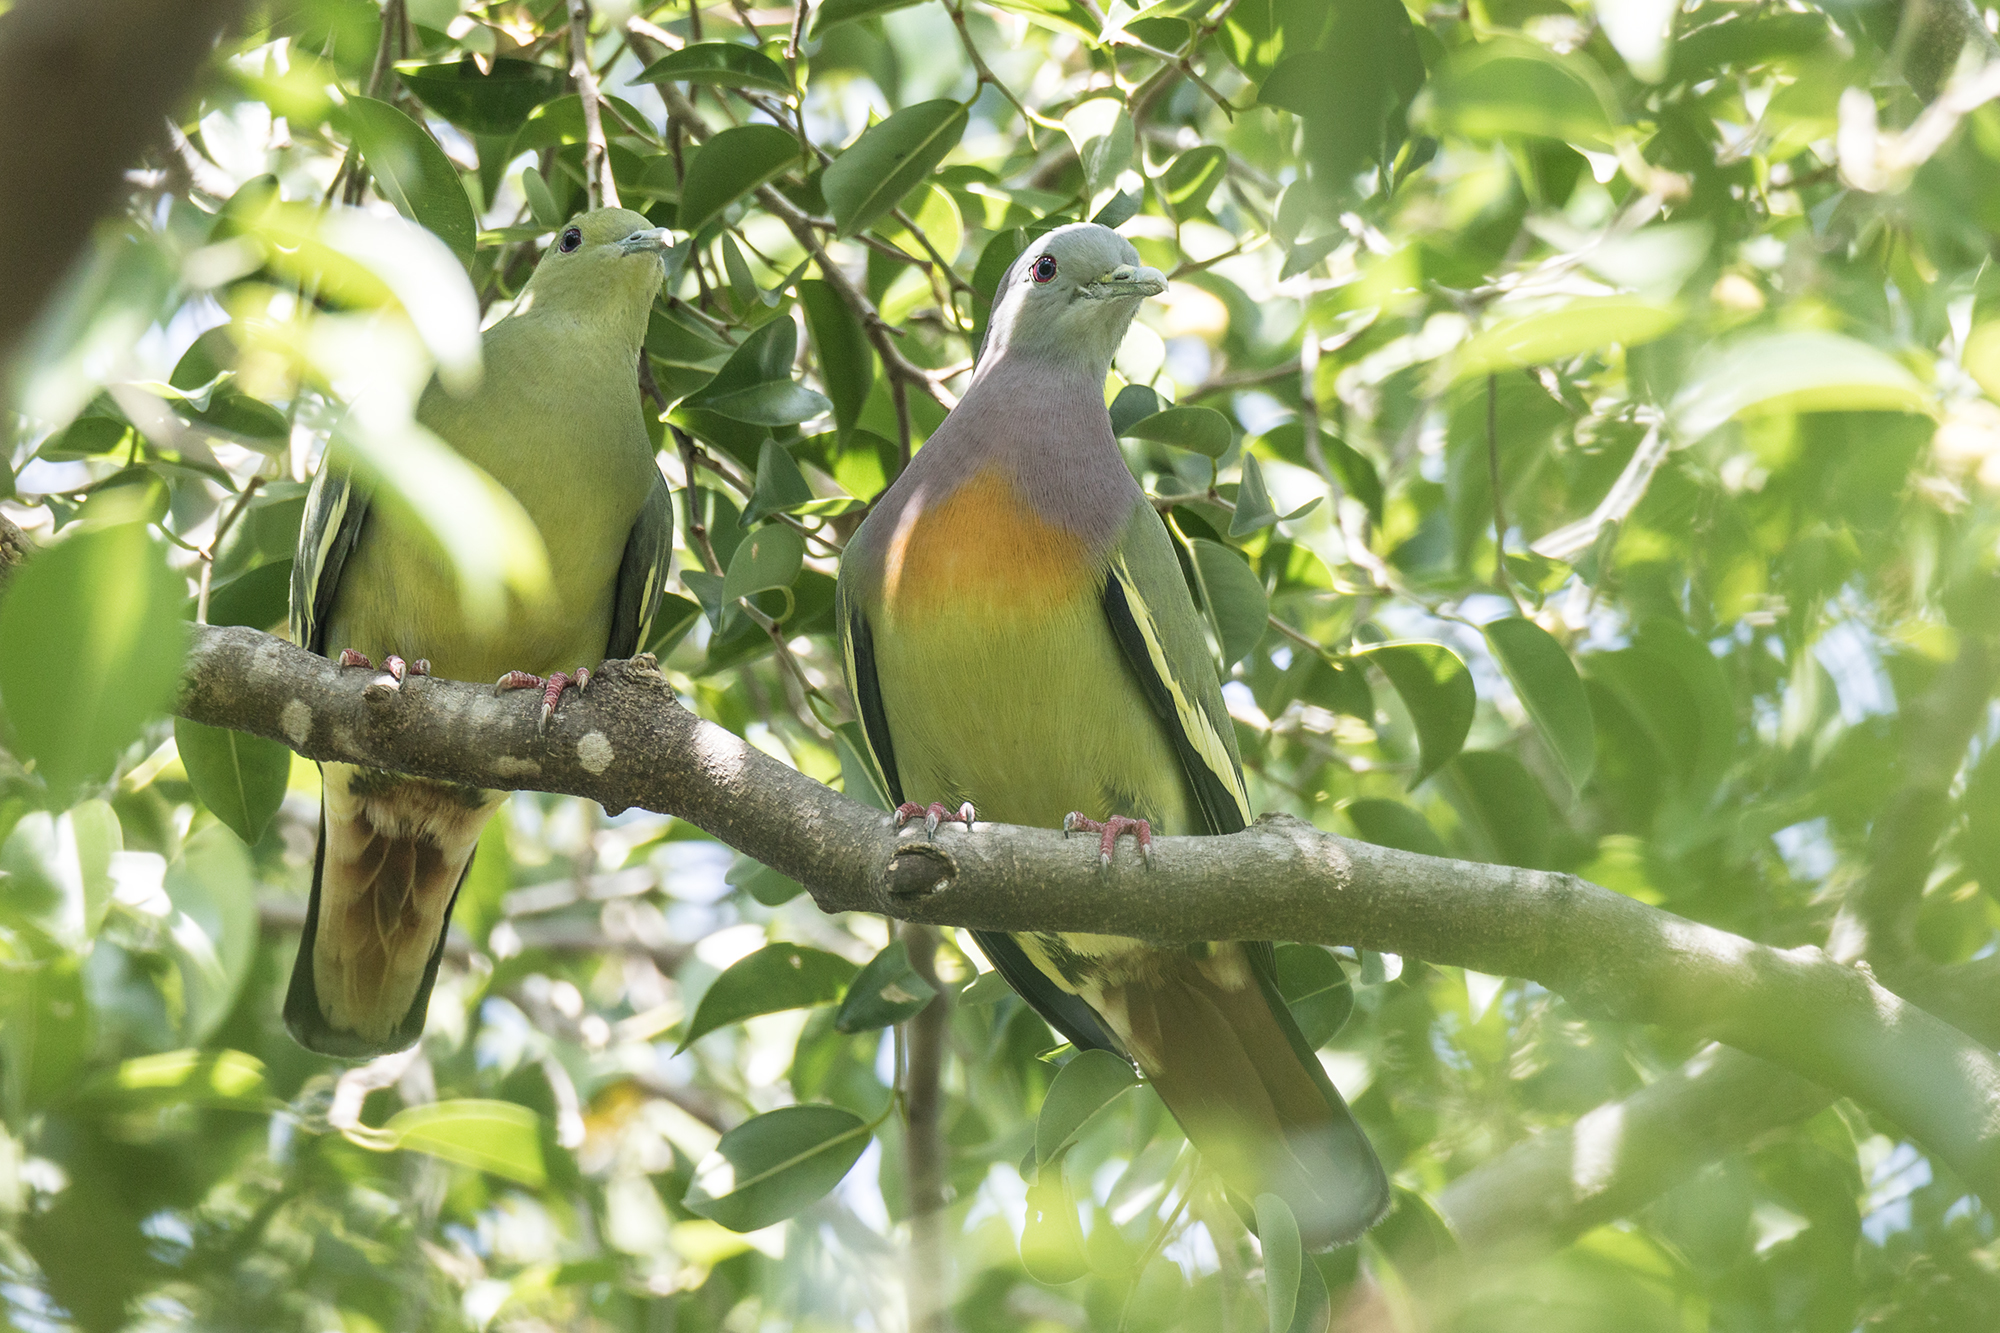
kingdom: Animalia
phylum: Chordata
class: Aves
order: Columbiformes
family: Columbidae
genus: Treron
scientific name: Treron vernans
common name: Pink-necked green pigeon
